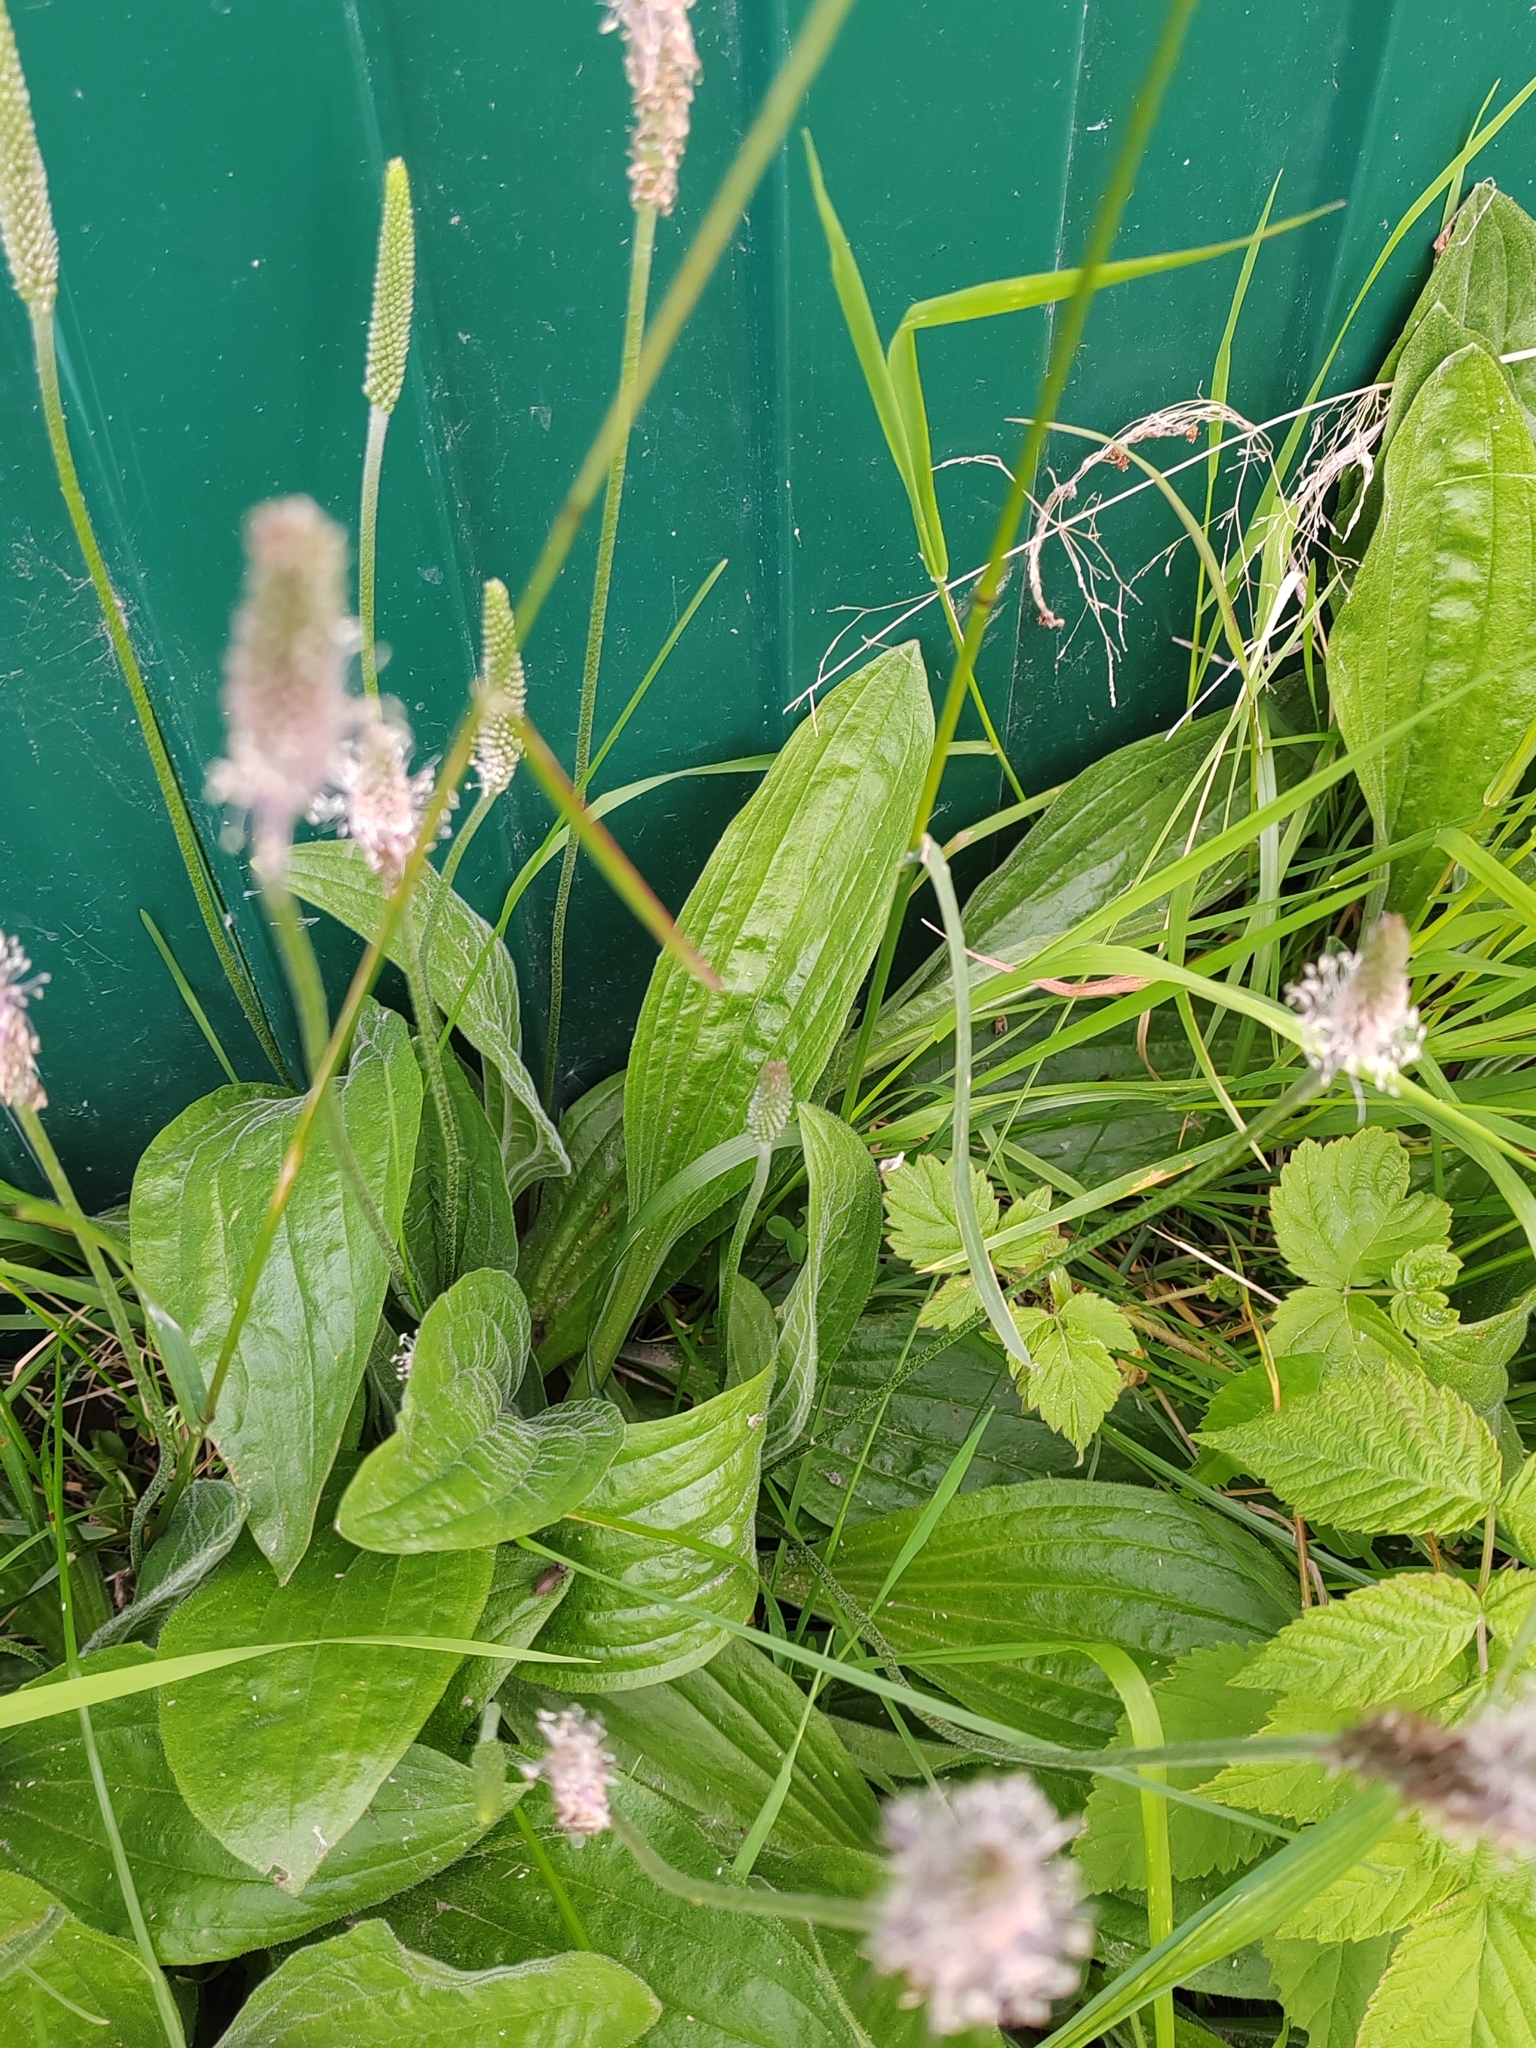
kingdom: Plantae
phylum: Tracheophyta
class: Magnoliopsida
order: Lamiales
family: Plantaginaceae
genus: Plantago
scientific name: Plantago media
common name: Hoary plantain
